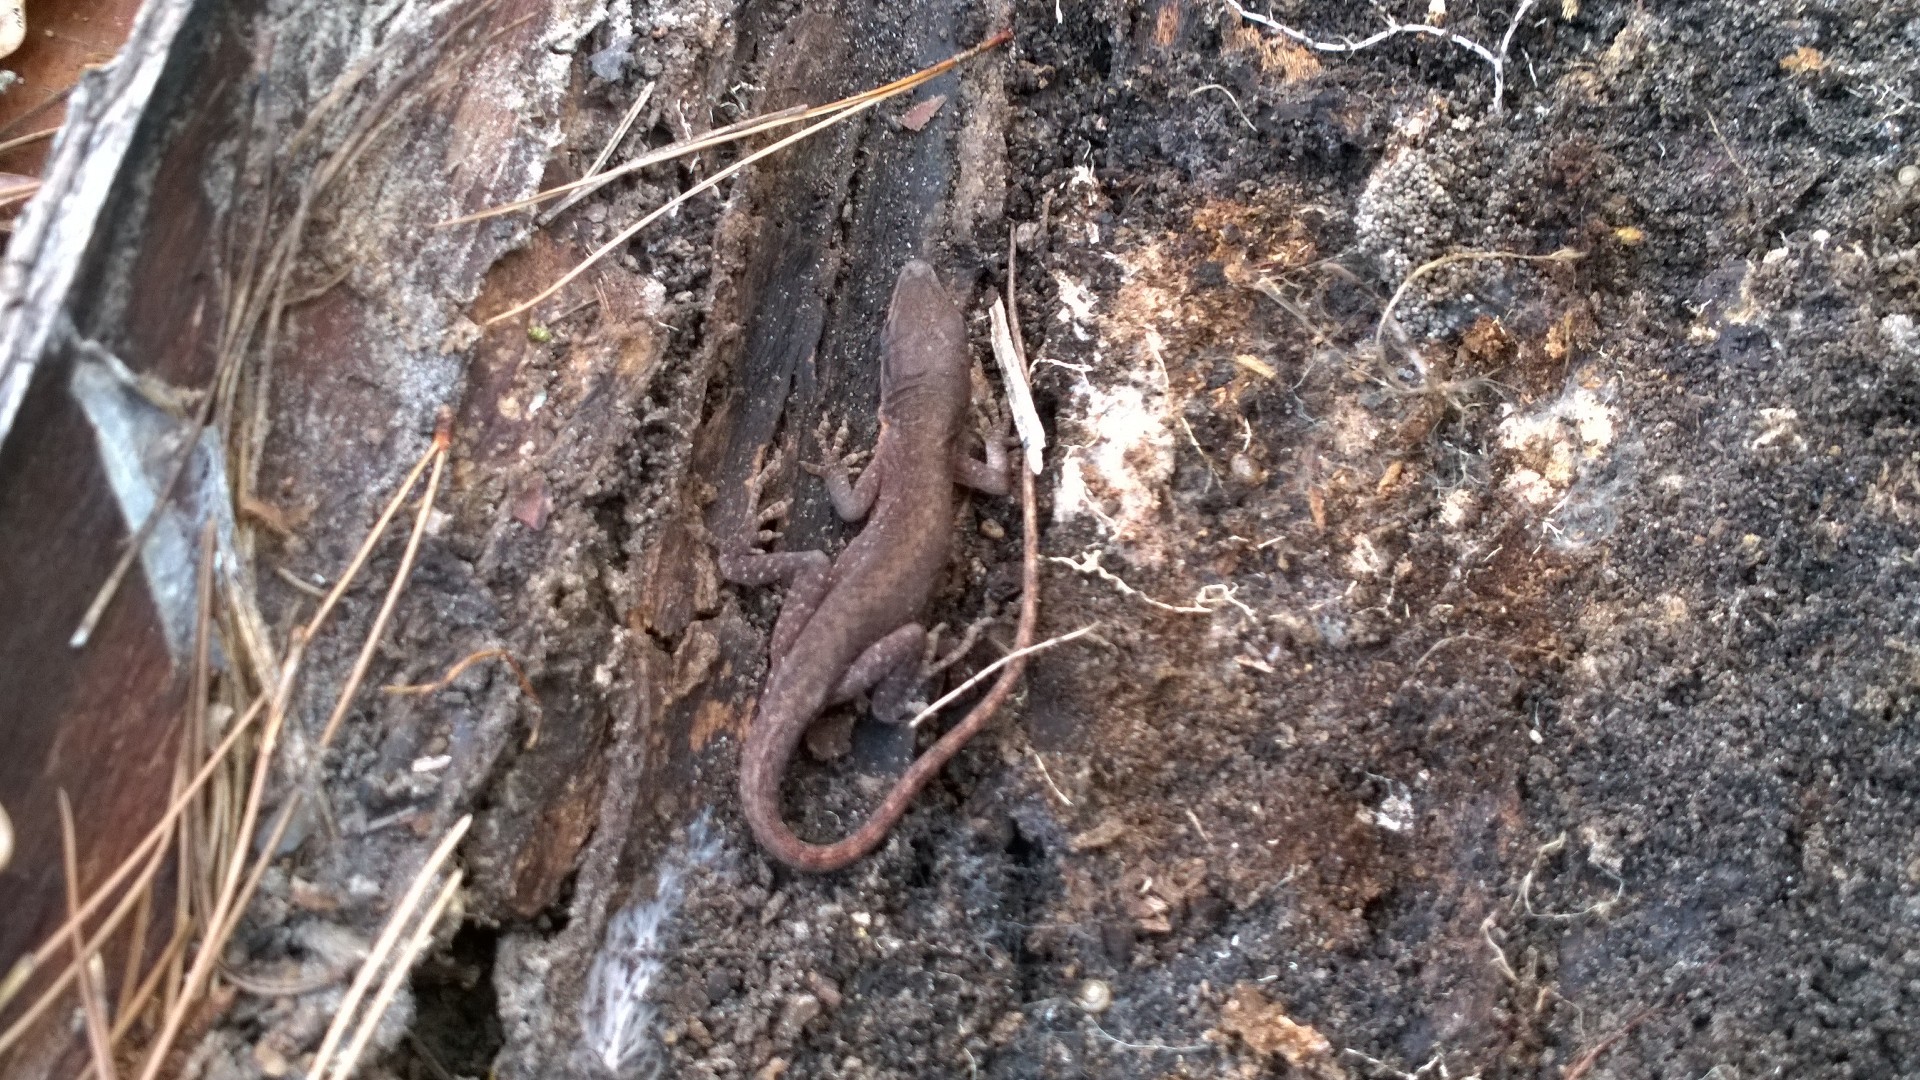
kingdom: Animalia
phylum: Chordata
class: Squamata
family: Dactyloidae
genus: Anolis
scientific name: Anolis carolinensis
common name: Green anole
